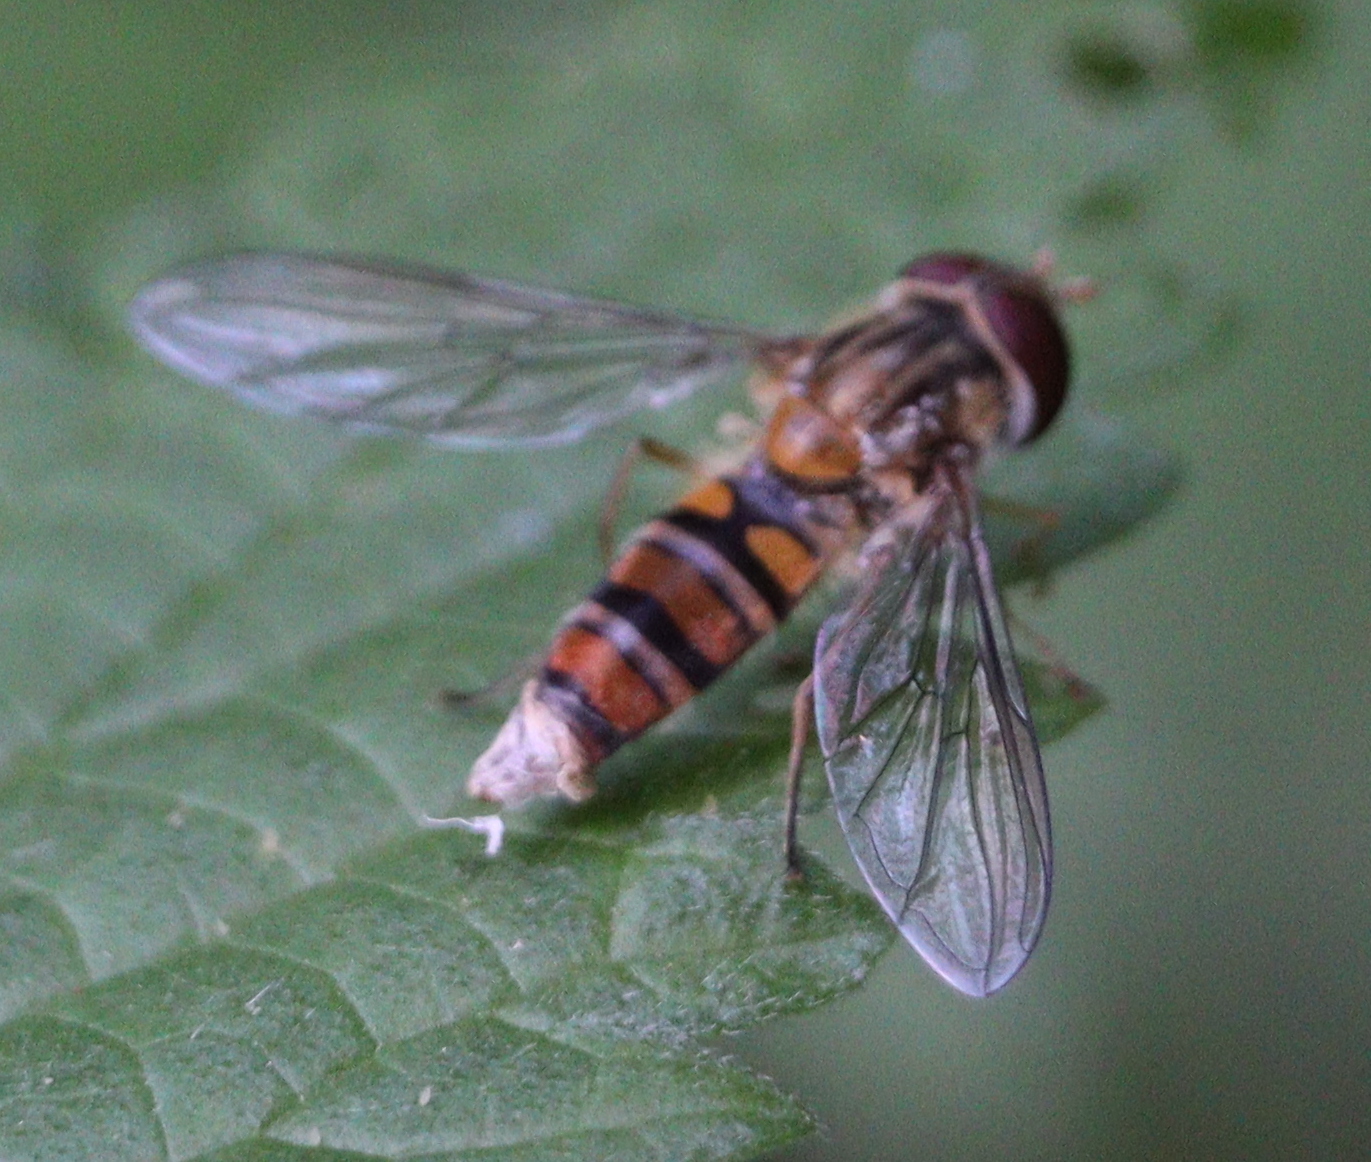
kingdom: Animalia
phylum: Arthropoda
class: Insecta
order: Diptera
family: Syrphidae
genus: Episyrphus
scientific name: Episyrphus balteatus
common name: Marmalade hoverfly
